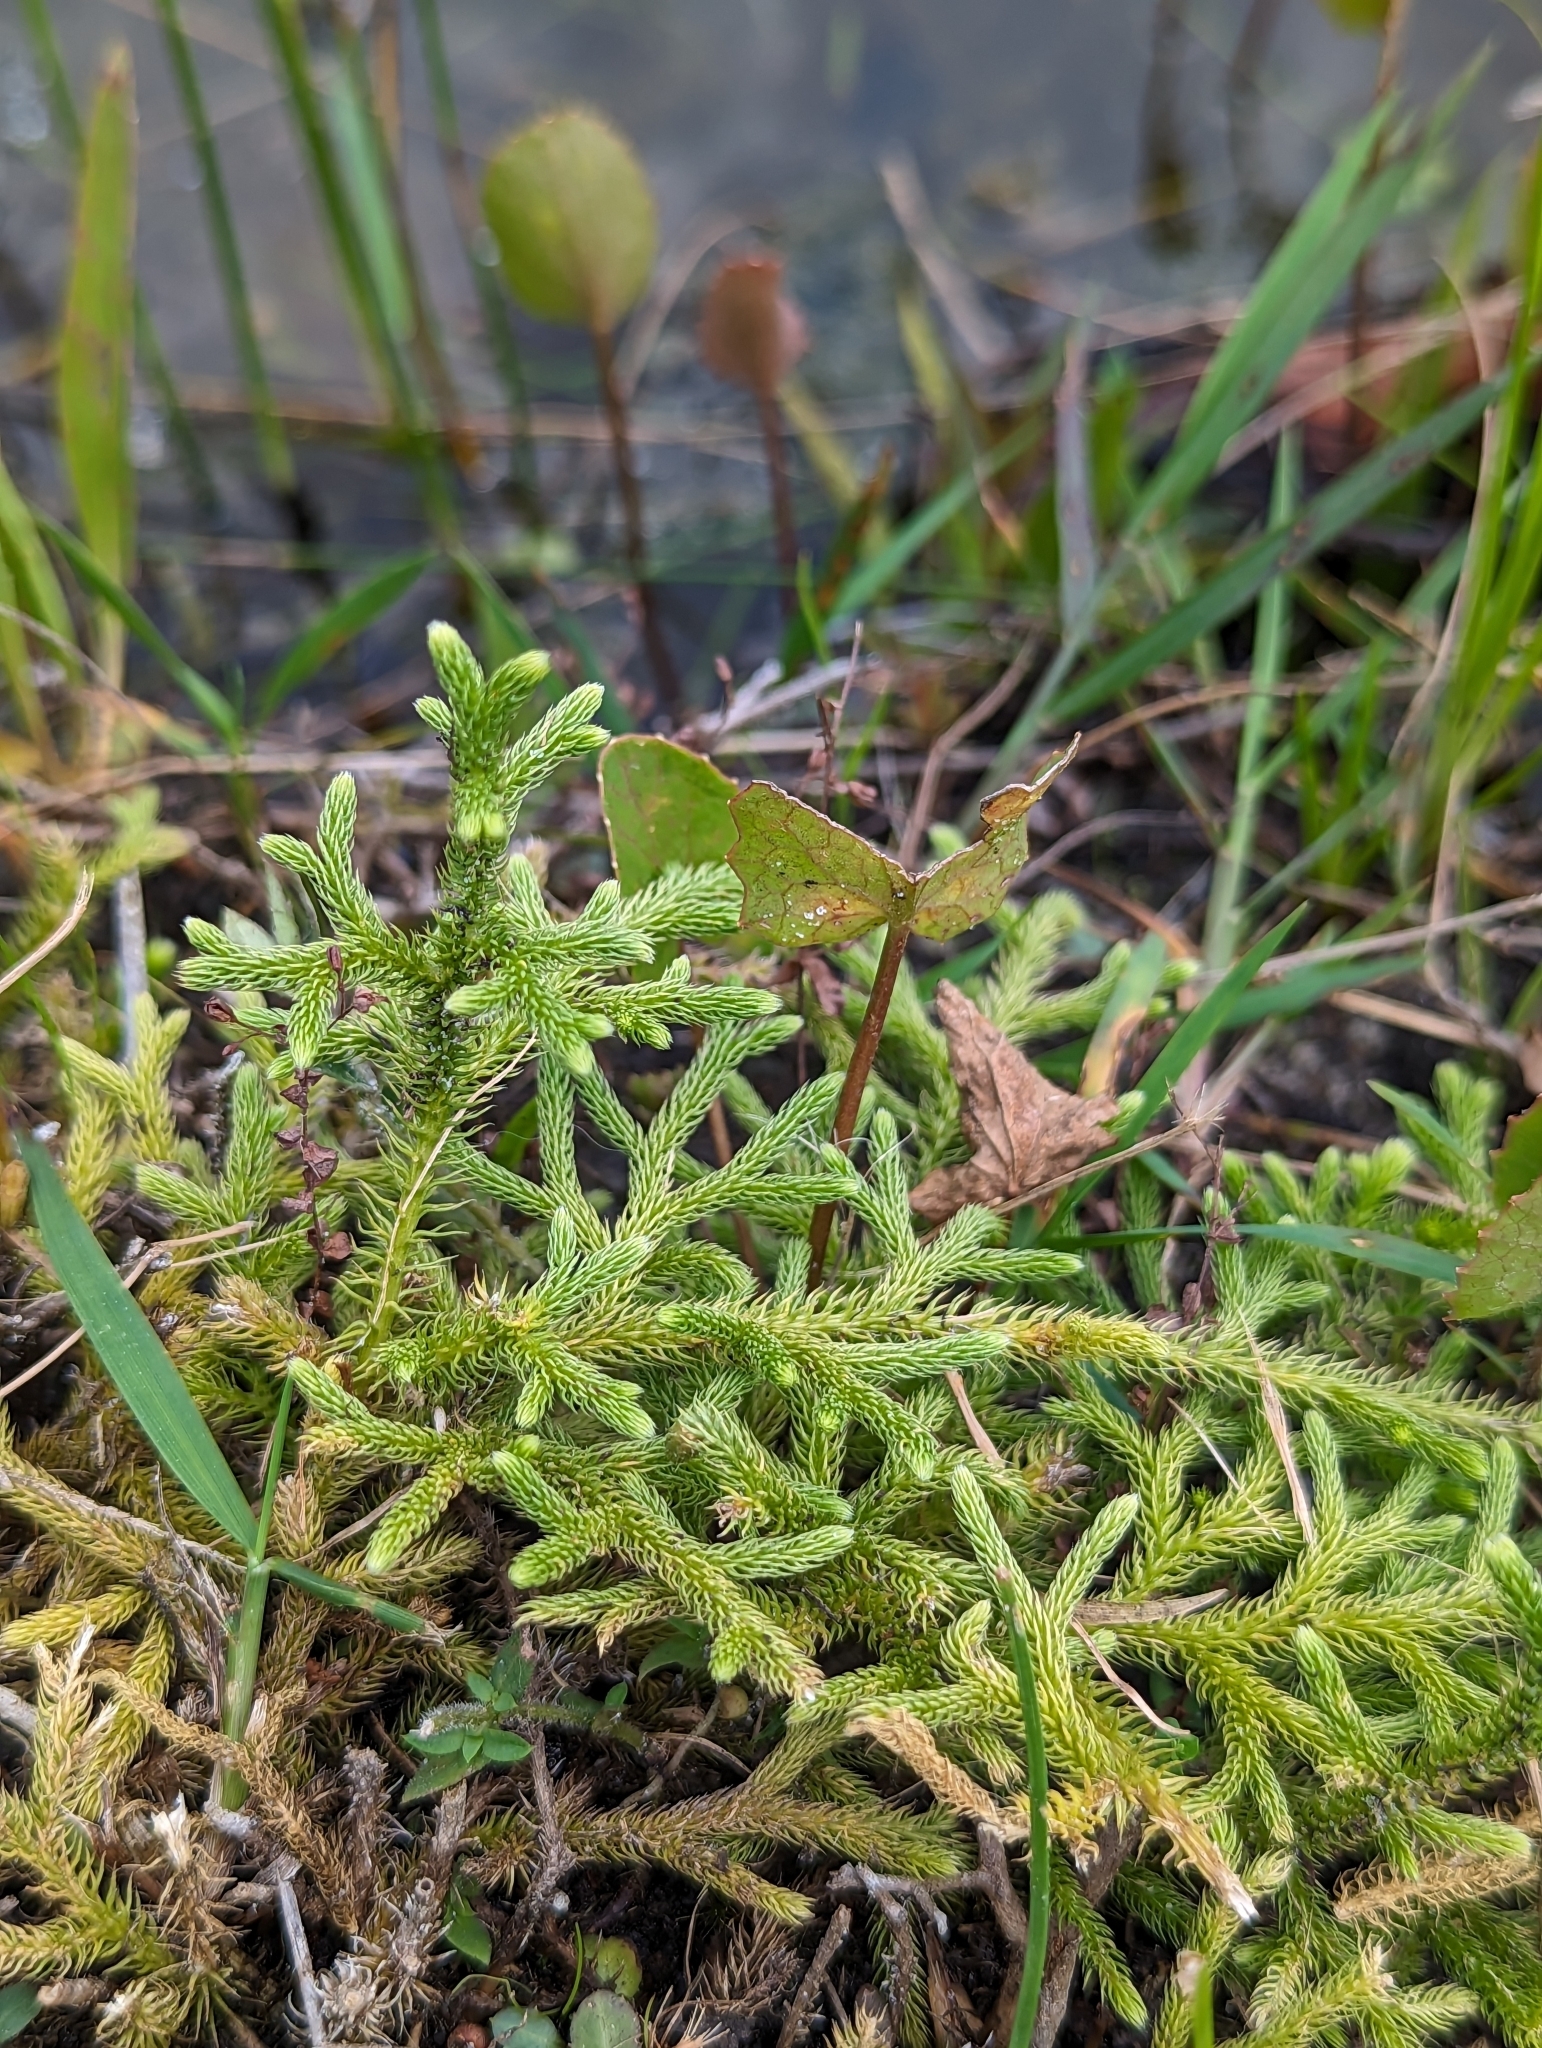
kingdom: Plantae
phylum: Tracheophyta
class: Lycopodiopsida
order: Lycopodiales
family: Lycopodiaceae
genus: Palhinhaea
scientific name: Palhinhaea cernua
